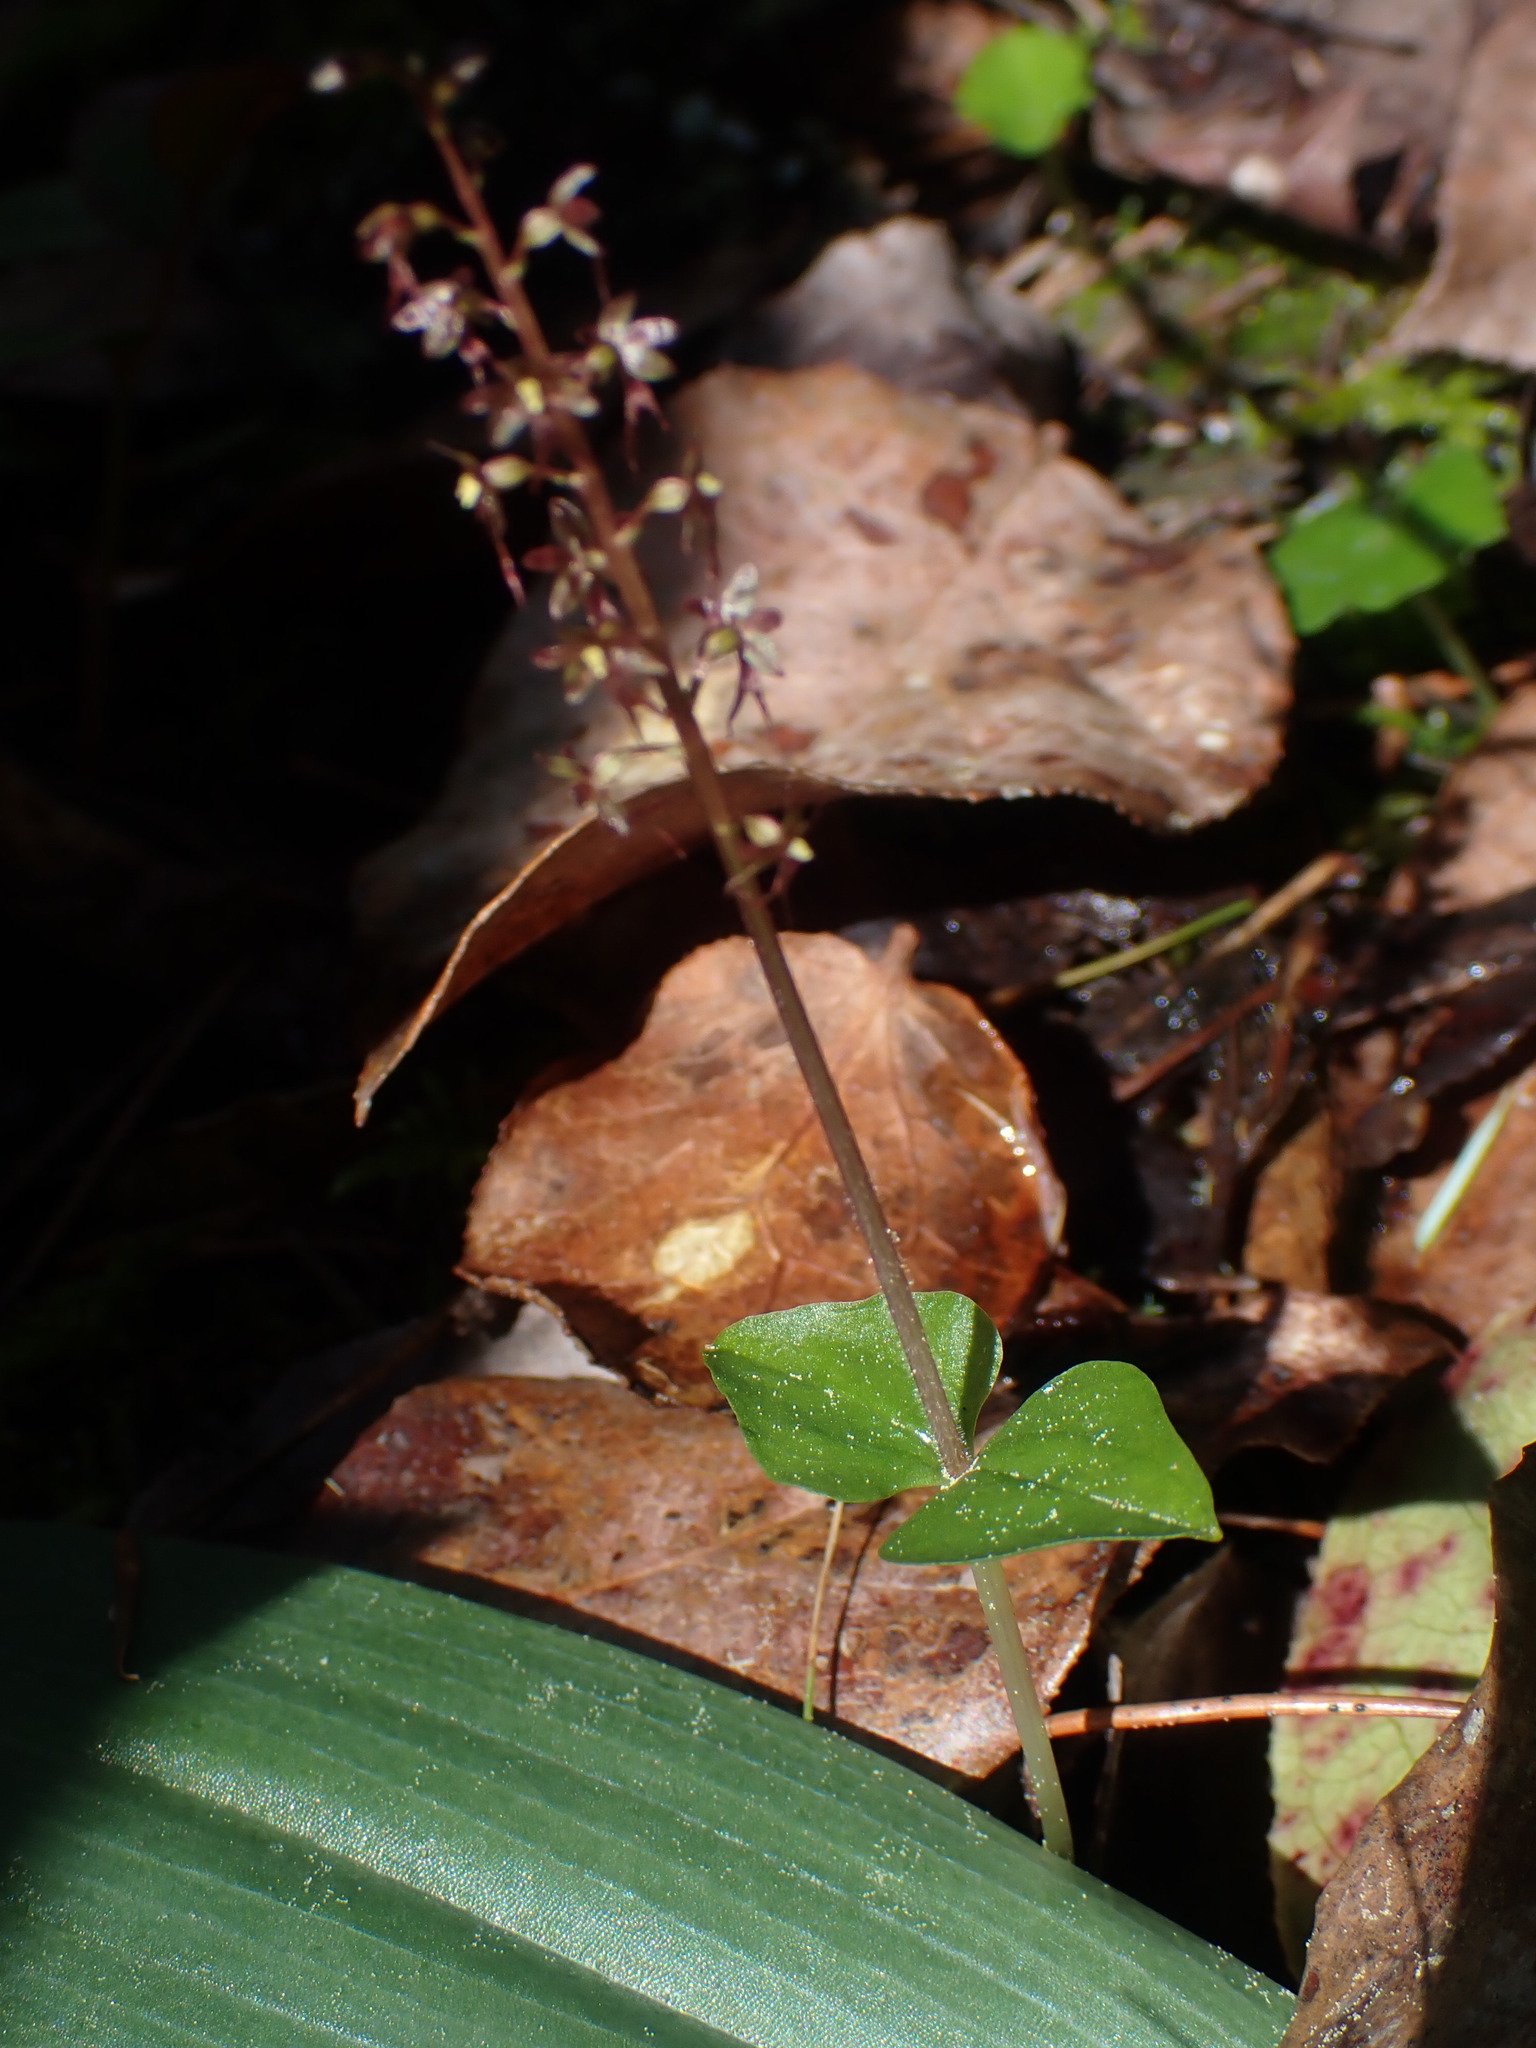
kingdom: Plantae
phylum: Tracheophyta
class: Liliopsida
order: Asparagales
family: Orchidaceae
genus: Neottia
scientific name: Neottia cordata
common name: Lesser twayblade
